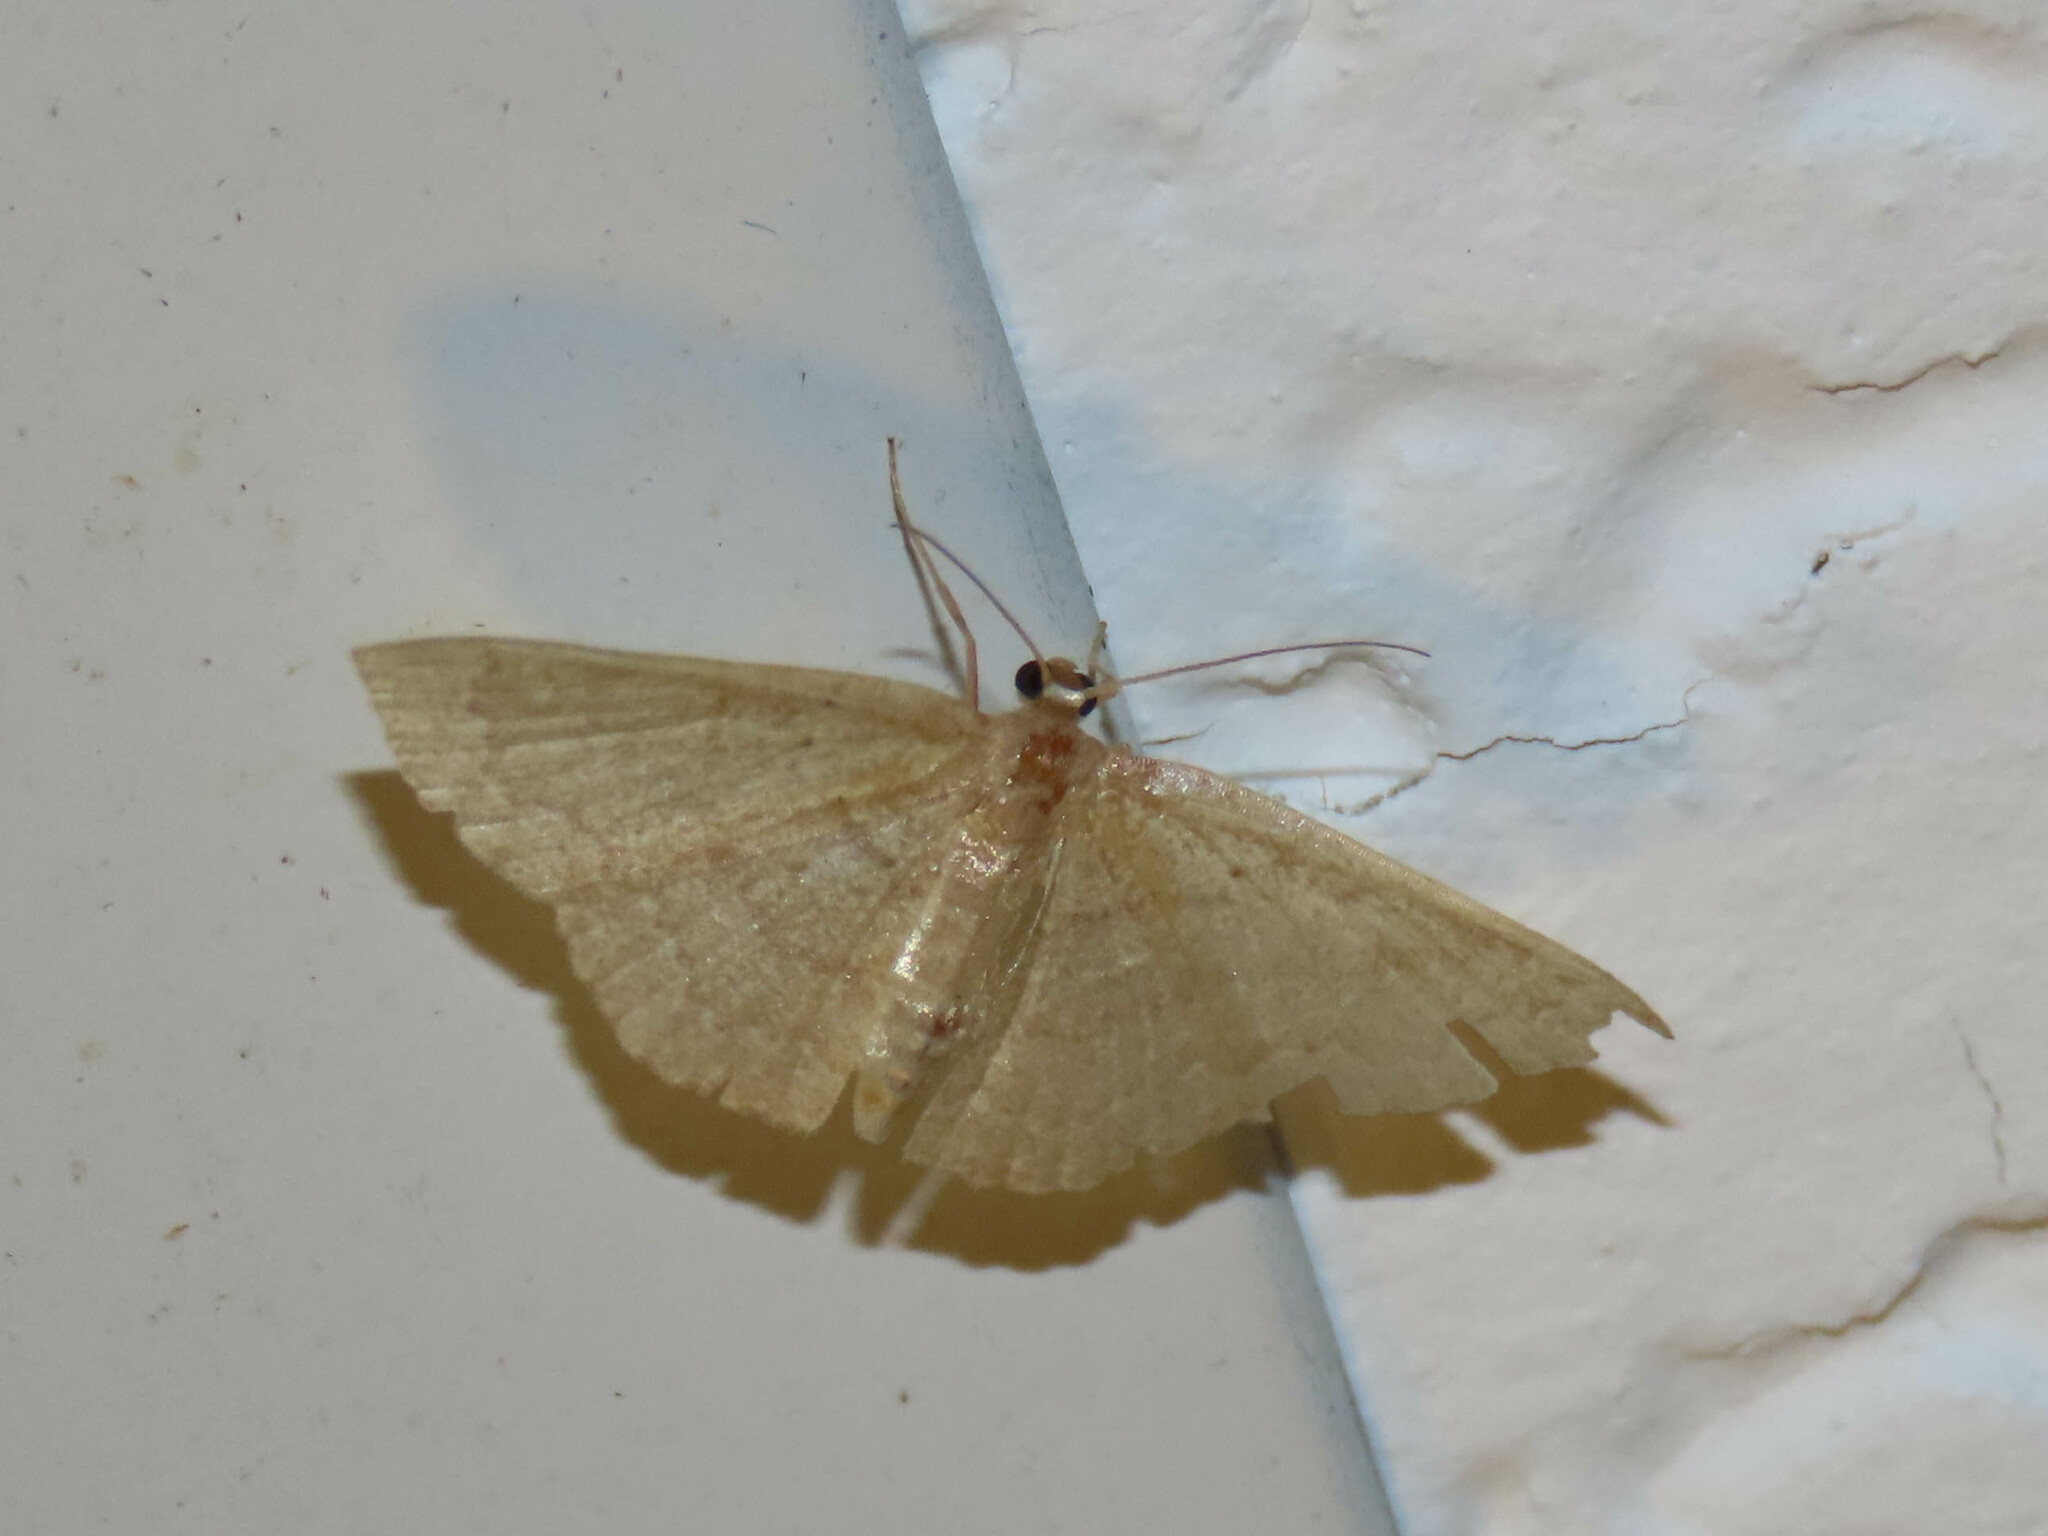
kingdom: Animalia
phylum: Arthropoda
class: Insecta
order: Lepidoptera
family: Geometridae
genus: Pleuroprucha
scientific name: Pleuroprucha insulsaria
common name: Common tan wave
